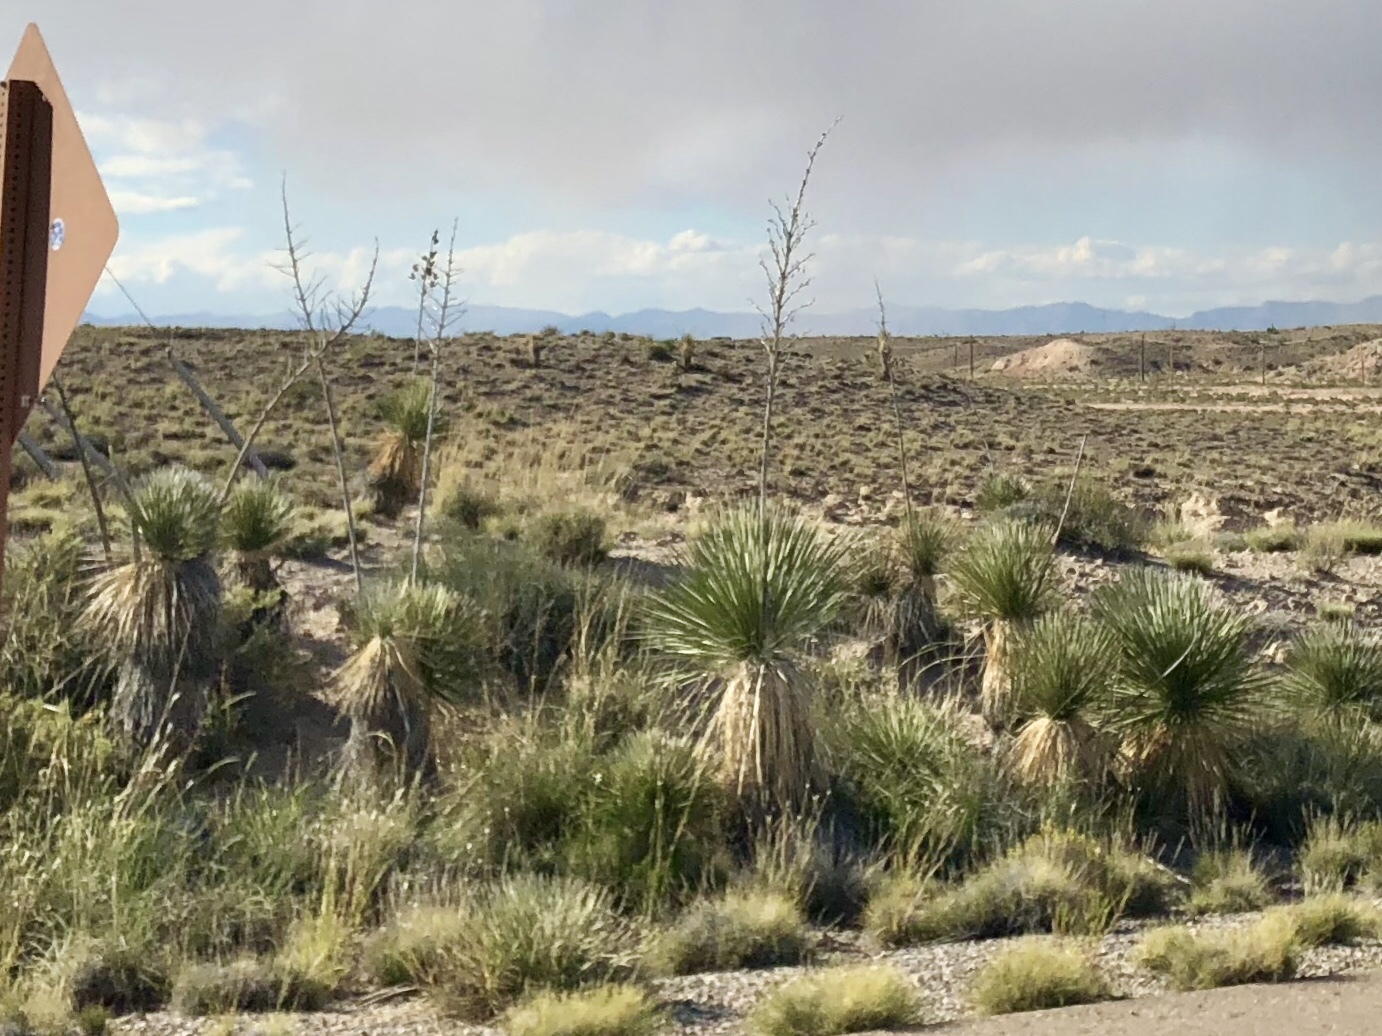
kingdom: Plantae
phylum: Tracheophyta
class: Liliopsida
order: Asparagales
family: Asparagaceae
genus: Yucca
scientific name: Yucca elata
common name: Palmella
